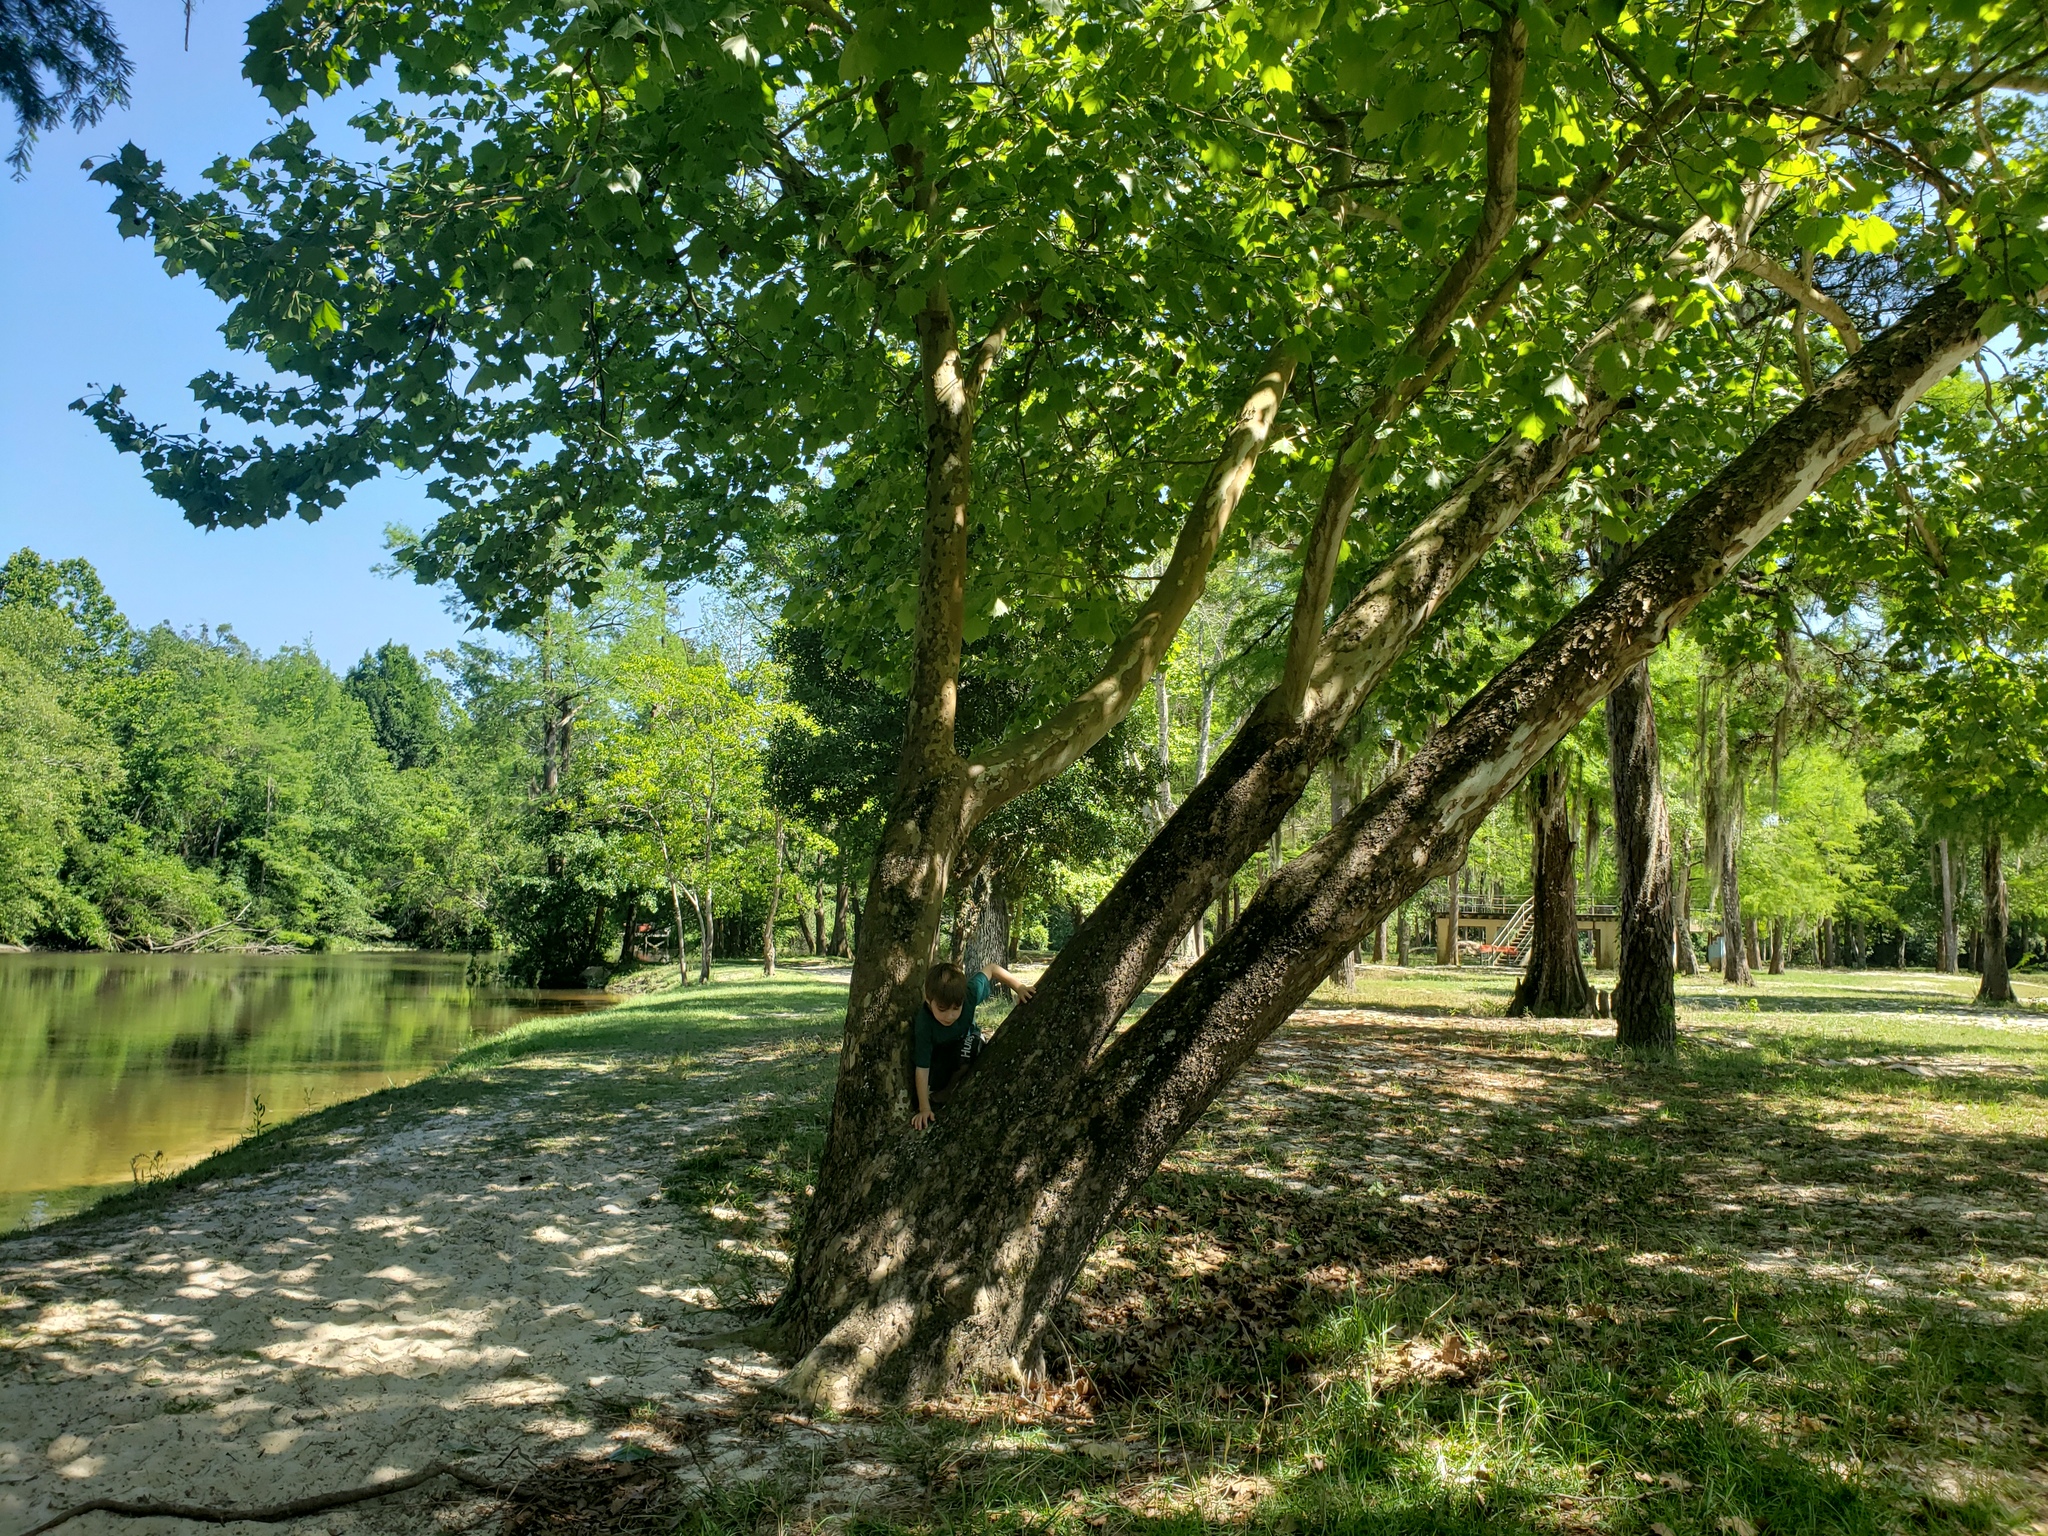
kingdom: Plantae
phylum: Tracheophyta
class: Magnoliopsida
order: Proteales
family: Platanaceae
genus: Platanus
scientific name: Platanus occidentalis
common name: American sycamore
